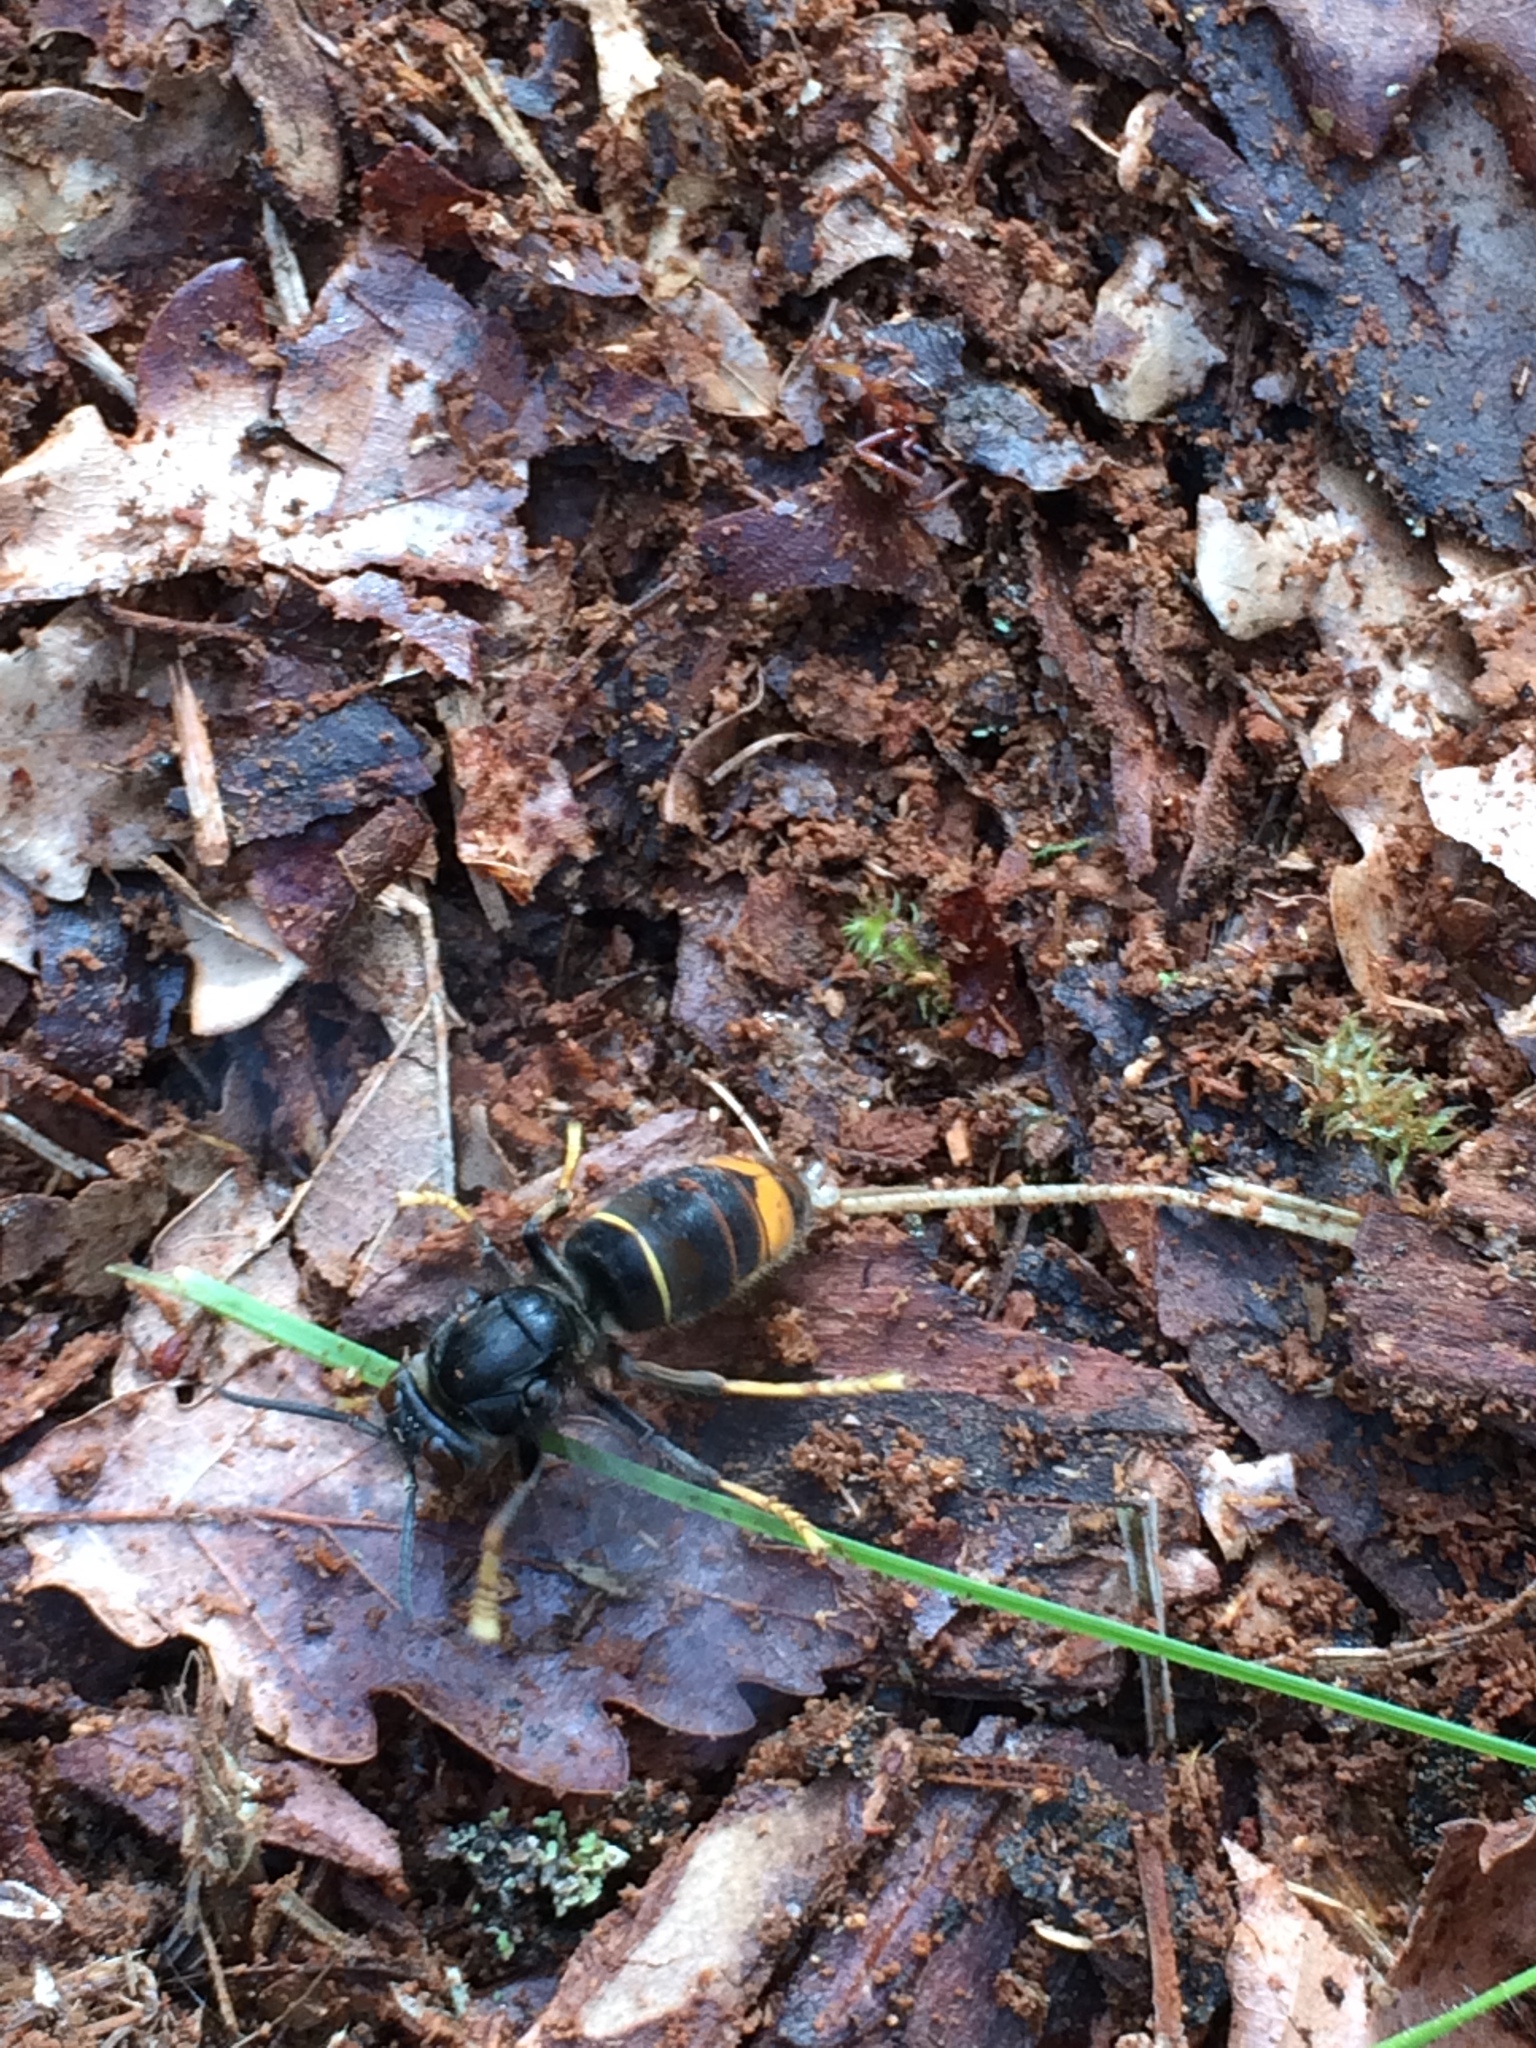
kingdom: Animalia
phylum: Arthropoda
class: Insecta
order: Hymenoptera
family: Vespidae
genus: Vespa
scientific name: Vespa velutina
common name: Asian hornet
